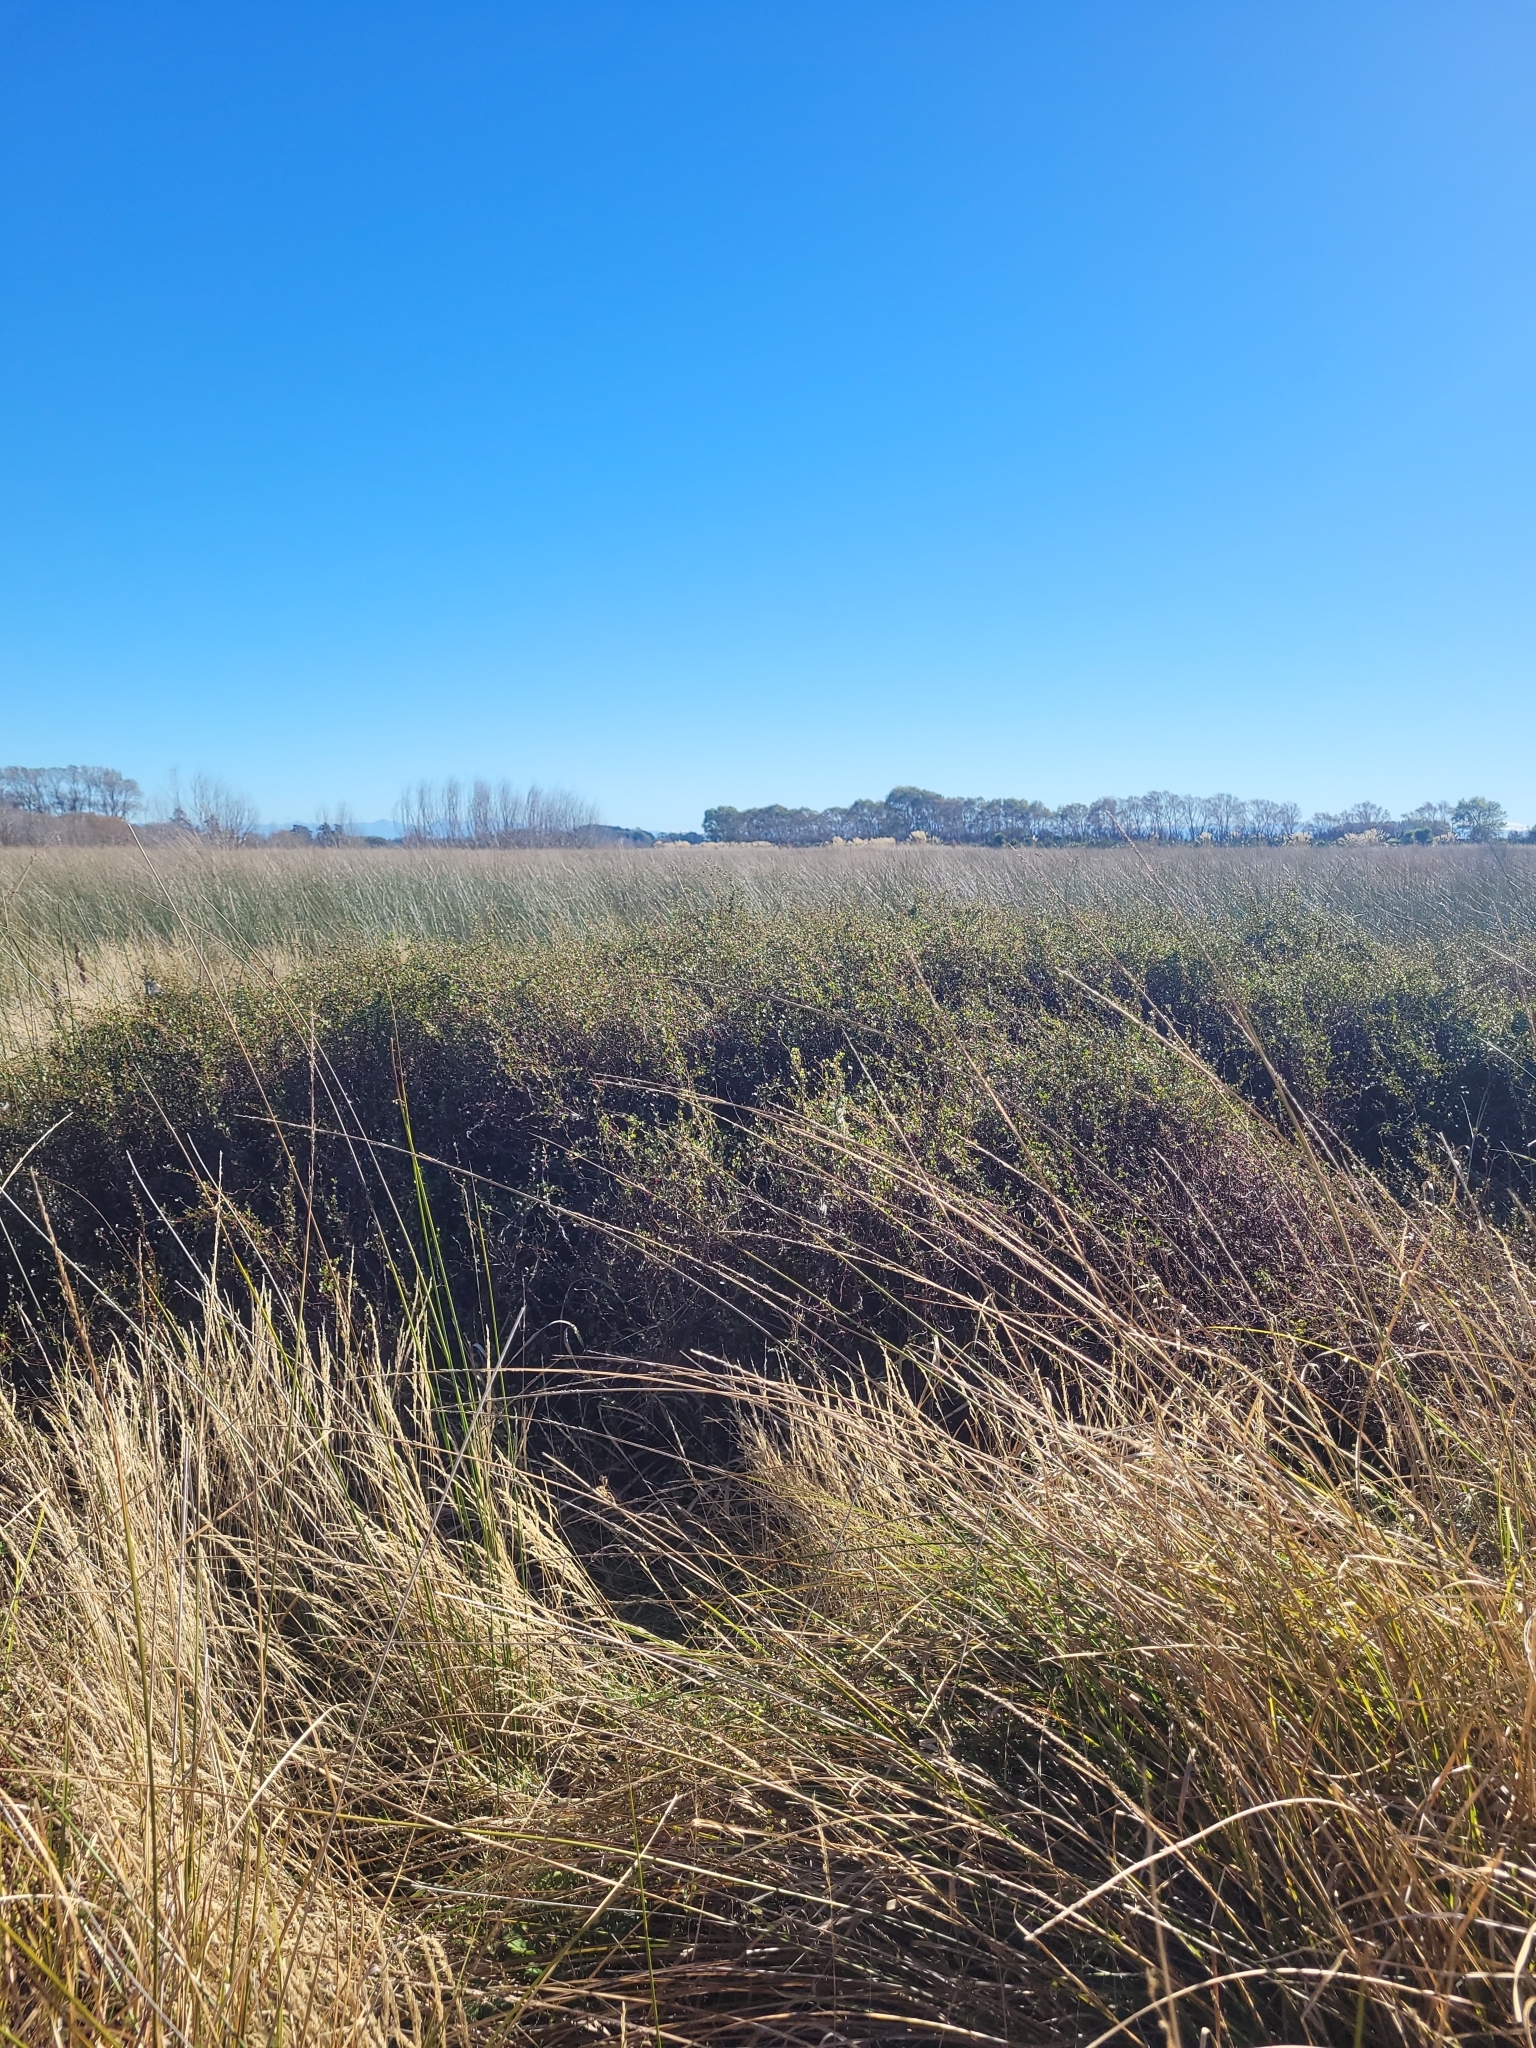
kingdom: Plantae
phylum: Tracheophyta
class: Magnoliopsida
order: Caryophyllales
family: Polygonaceae
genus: Muehlenbeckia
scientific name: Muehlenbeckia complexa
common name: Wireplant
